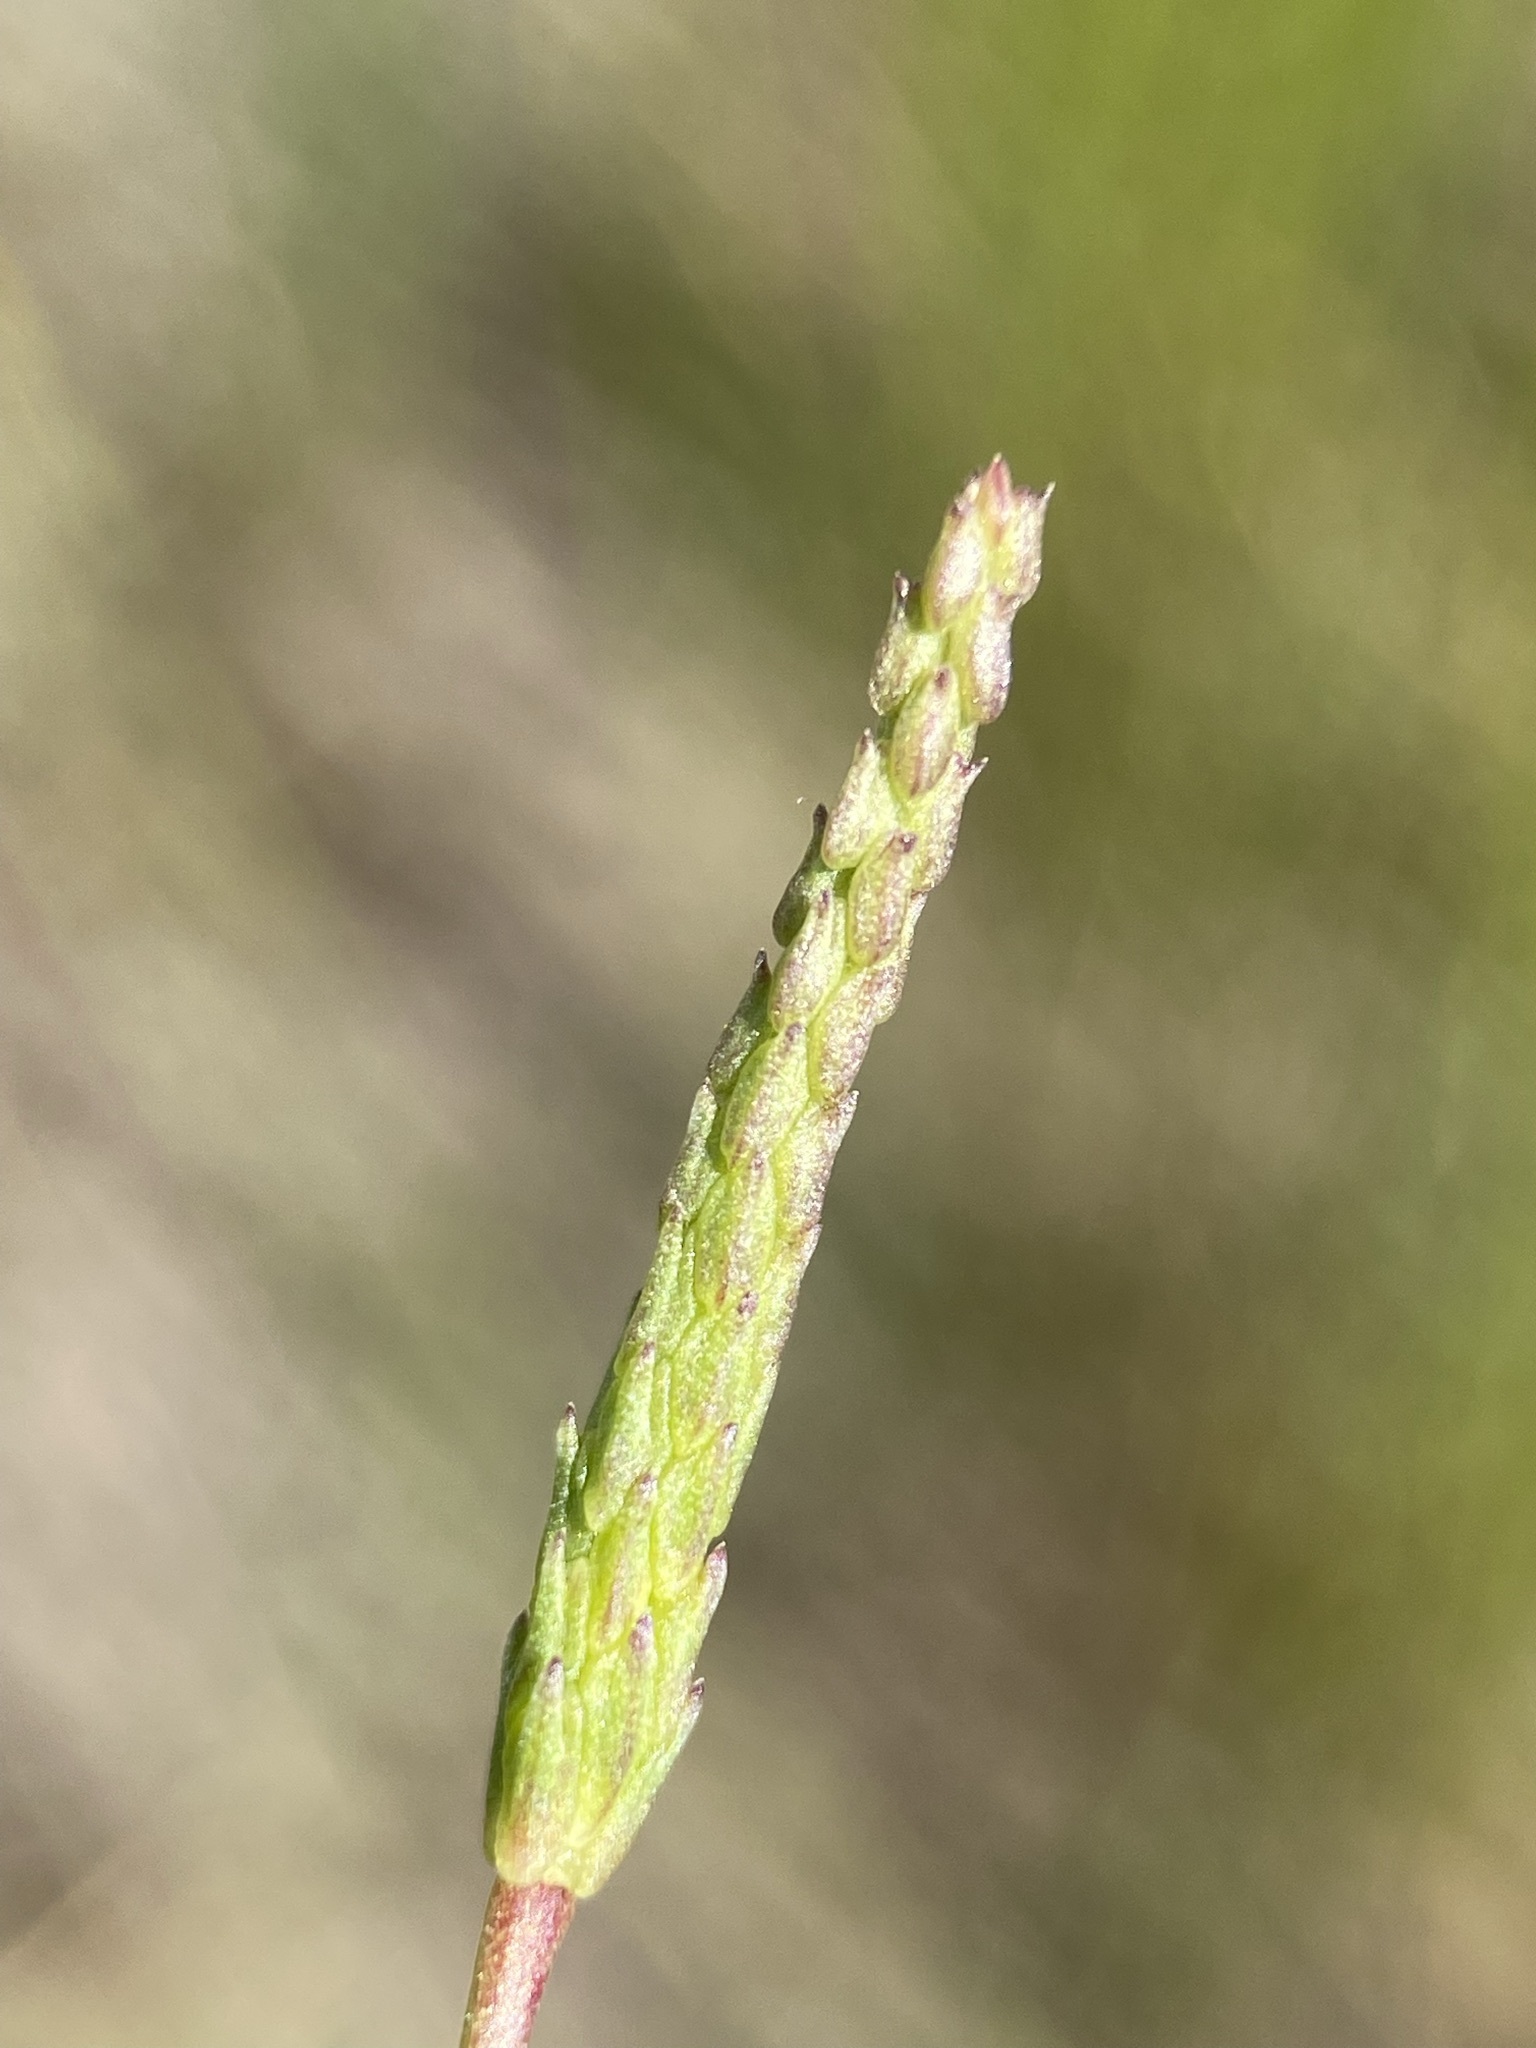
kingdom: Plantae
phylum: Tracheophyta
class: Magnoliopsida
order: Ranunculales
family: Ranunculaceae
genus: Myosurus
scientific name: Myosurus minimus
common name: Mousetail
